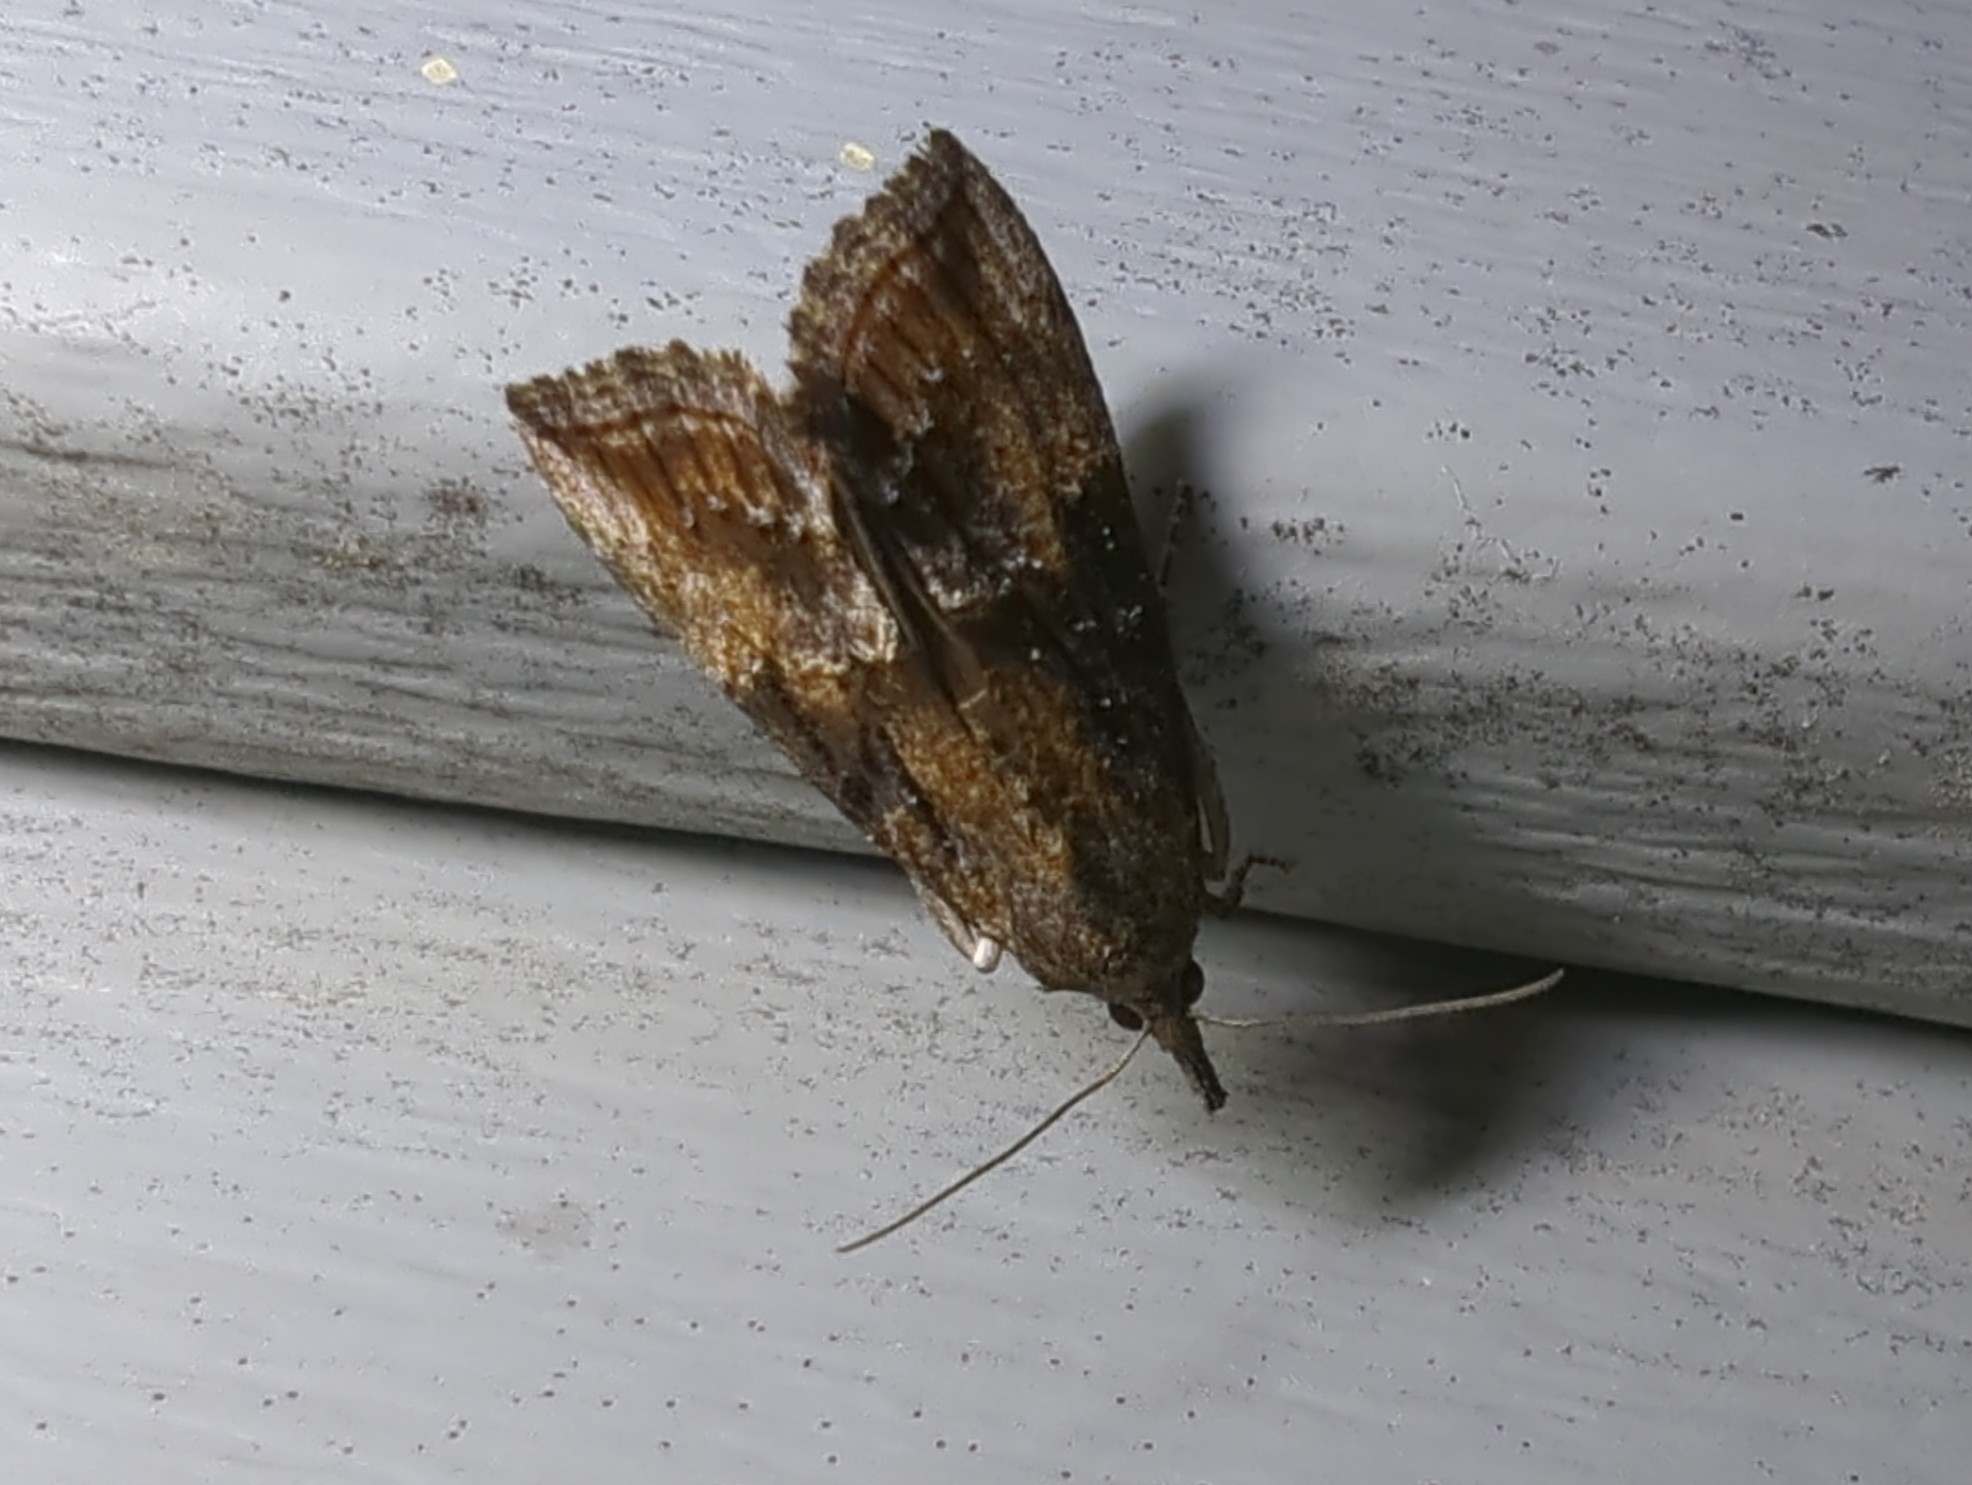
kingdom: Animalia
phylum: Arthropoda
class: Insecta
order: Lepidoptera
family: Erebidae
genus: Hypena
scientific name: Hypena scabra
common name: Green cloverworm
